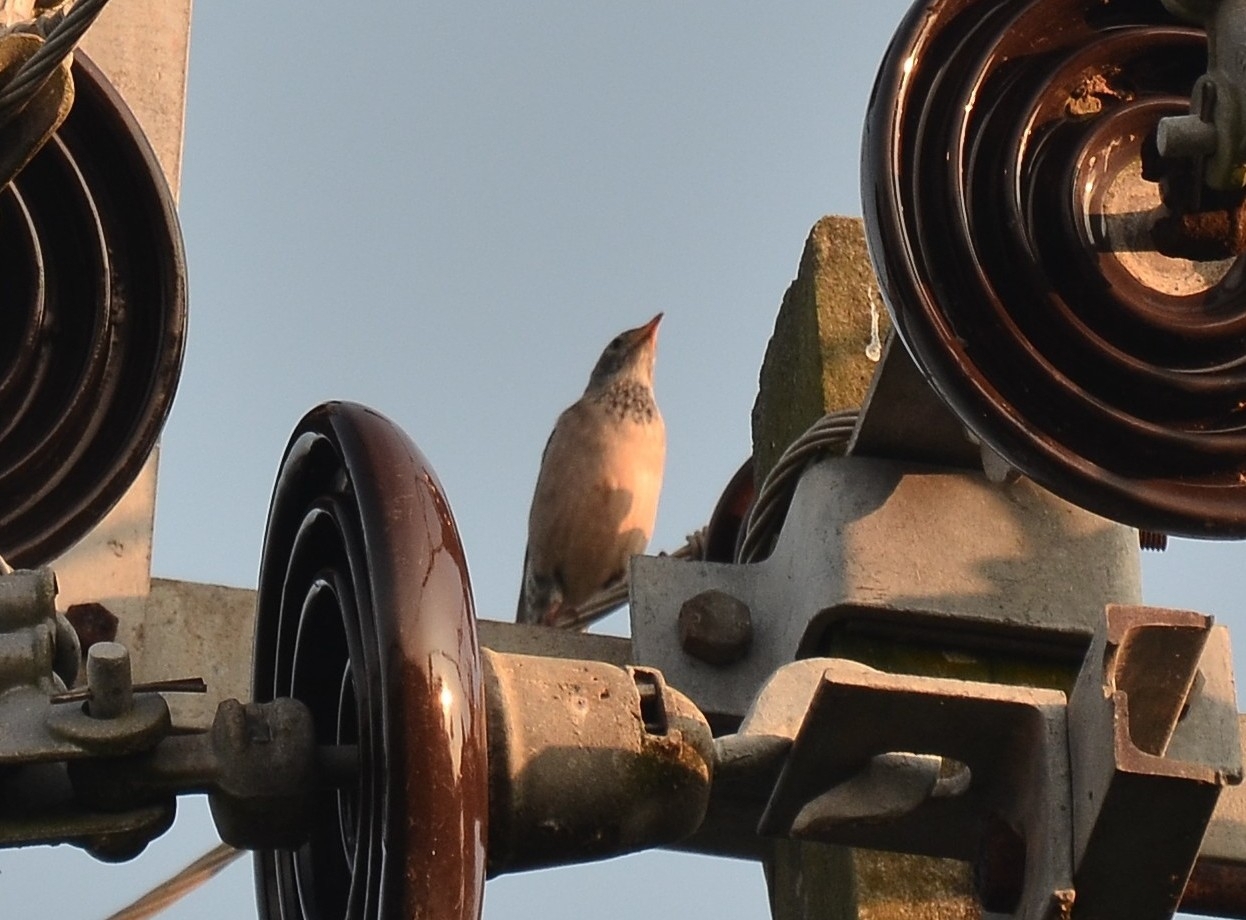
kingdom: Animalia
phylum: Chordata
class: Aves
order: Passeriformes
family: Sturnidae
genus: Pastor
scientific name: Pastor roseus
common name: Rosy starling
